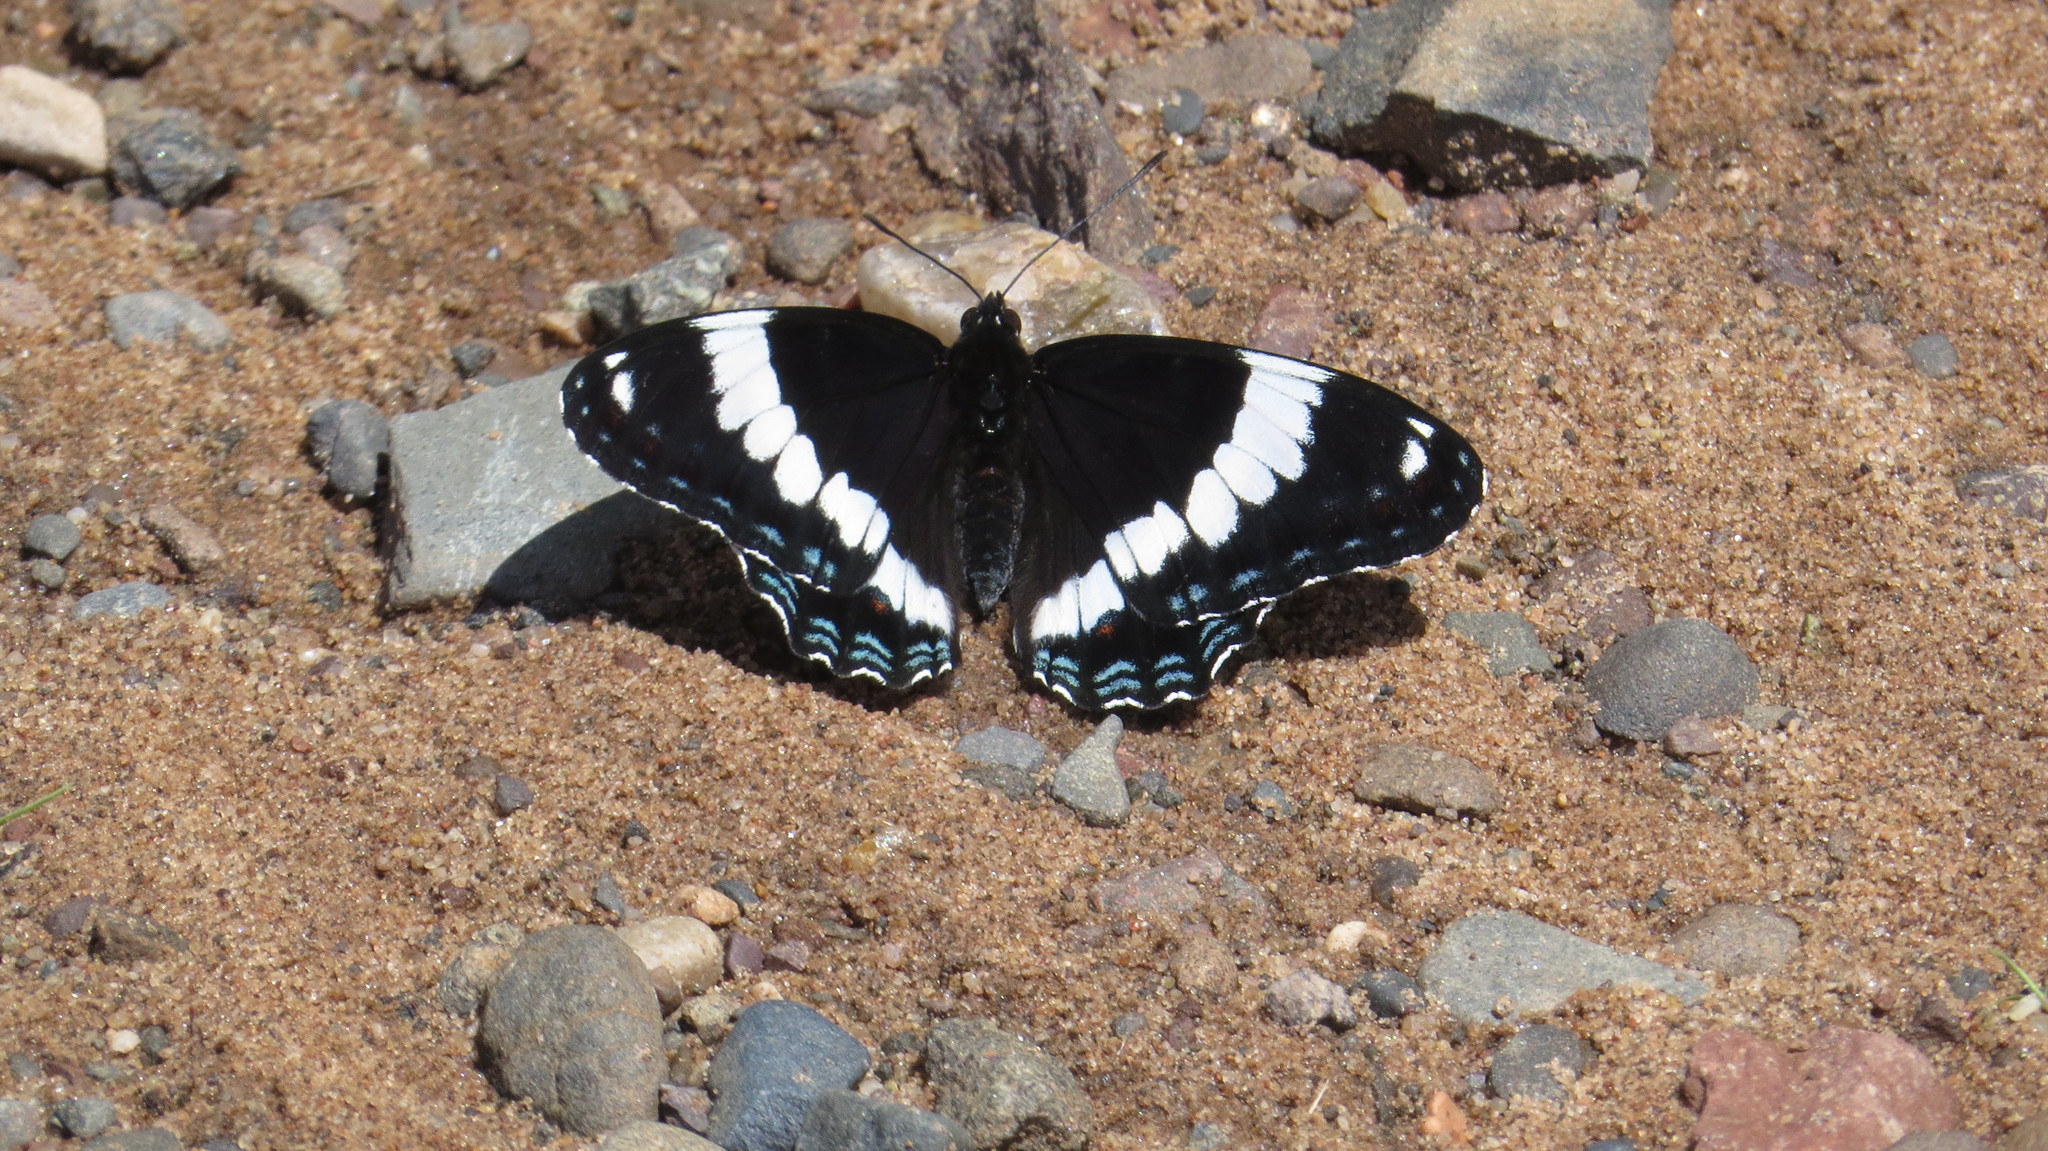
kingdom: Animalia
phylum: Arthropoda
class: Insecta
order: Lepidoptera
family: Nymphalidae
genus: Limenitis
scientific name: Limenitis arthemis
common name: Red-spotted admiral
